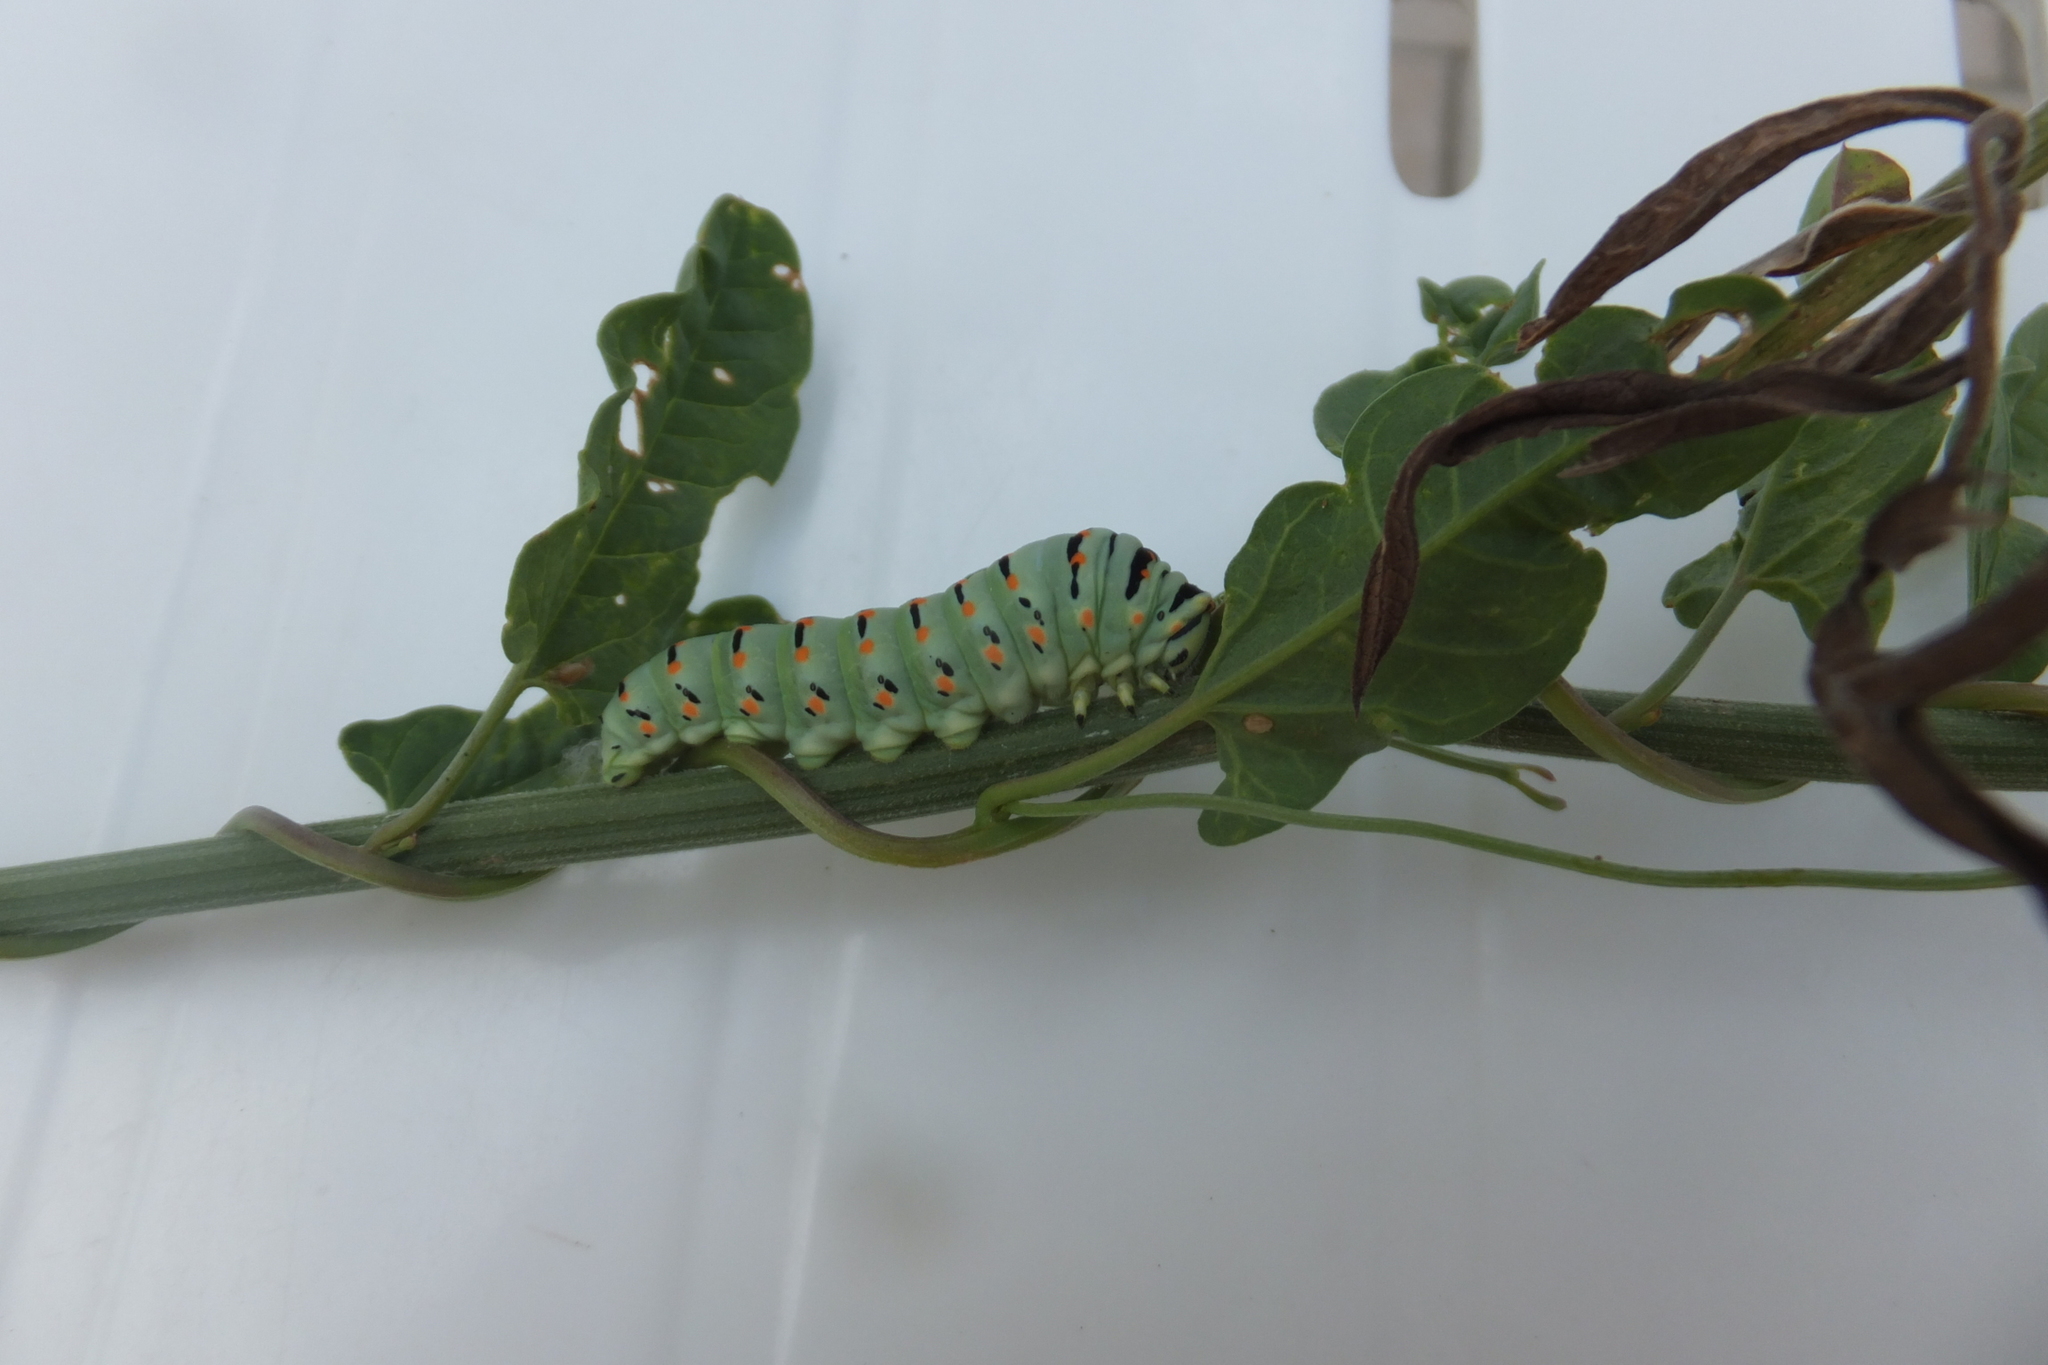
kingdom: Animalia
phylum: Arthropoda
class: Insecta
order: Lepidoptera
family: Papilionidae
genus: Papilio
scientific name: Papilio machaon
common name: Swallowtail
